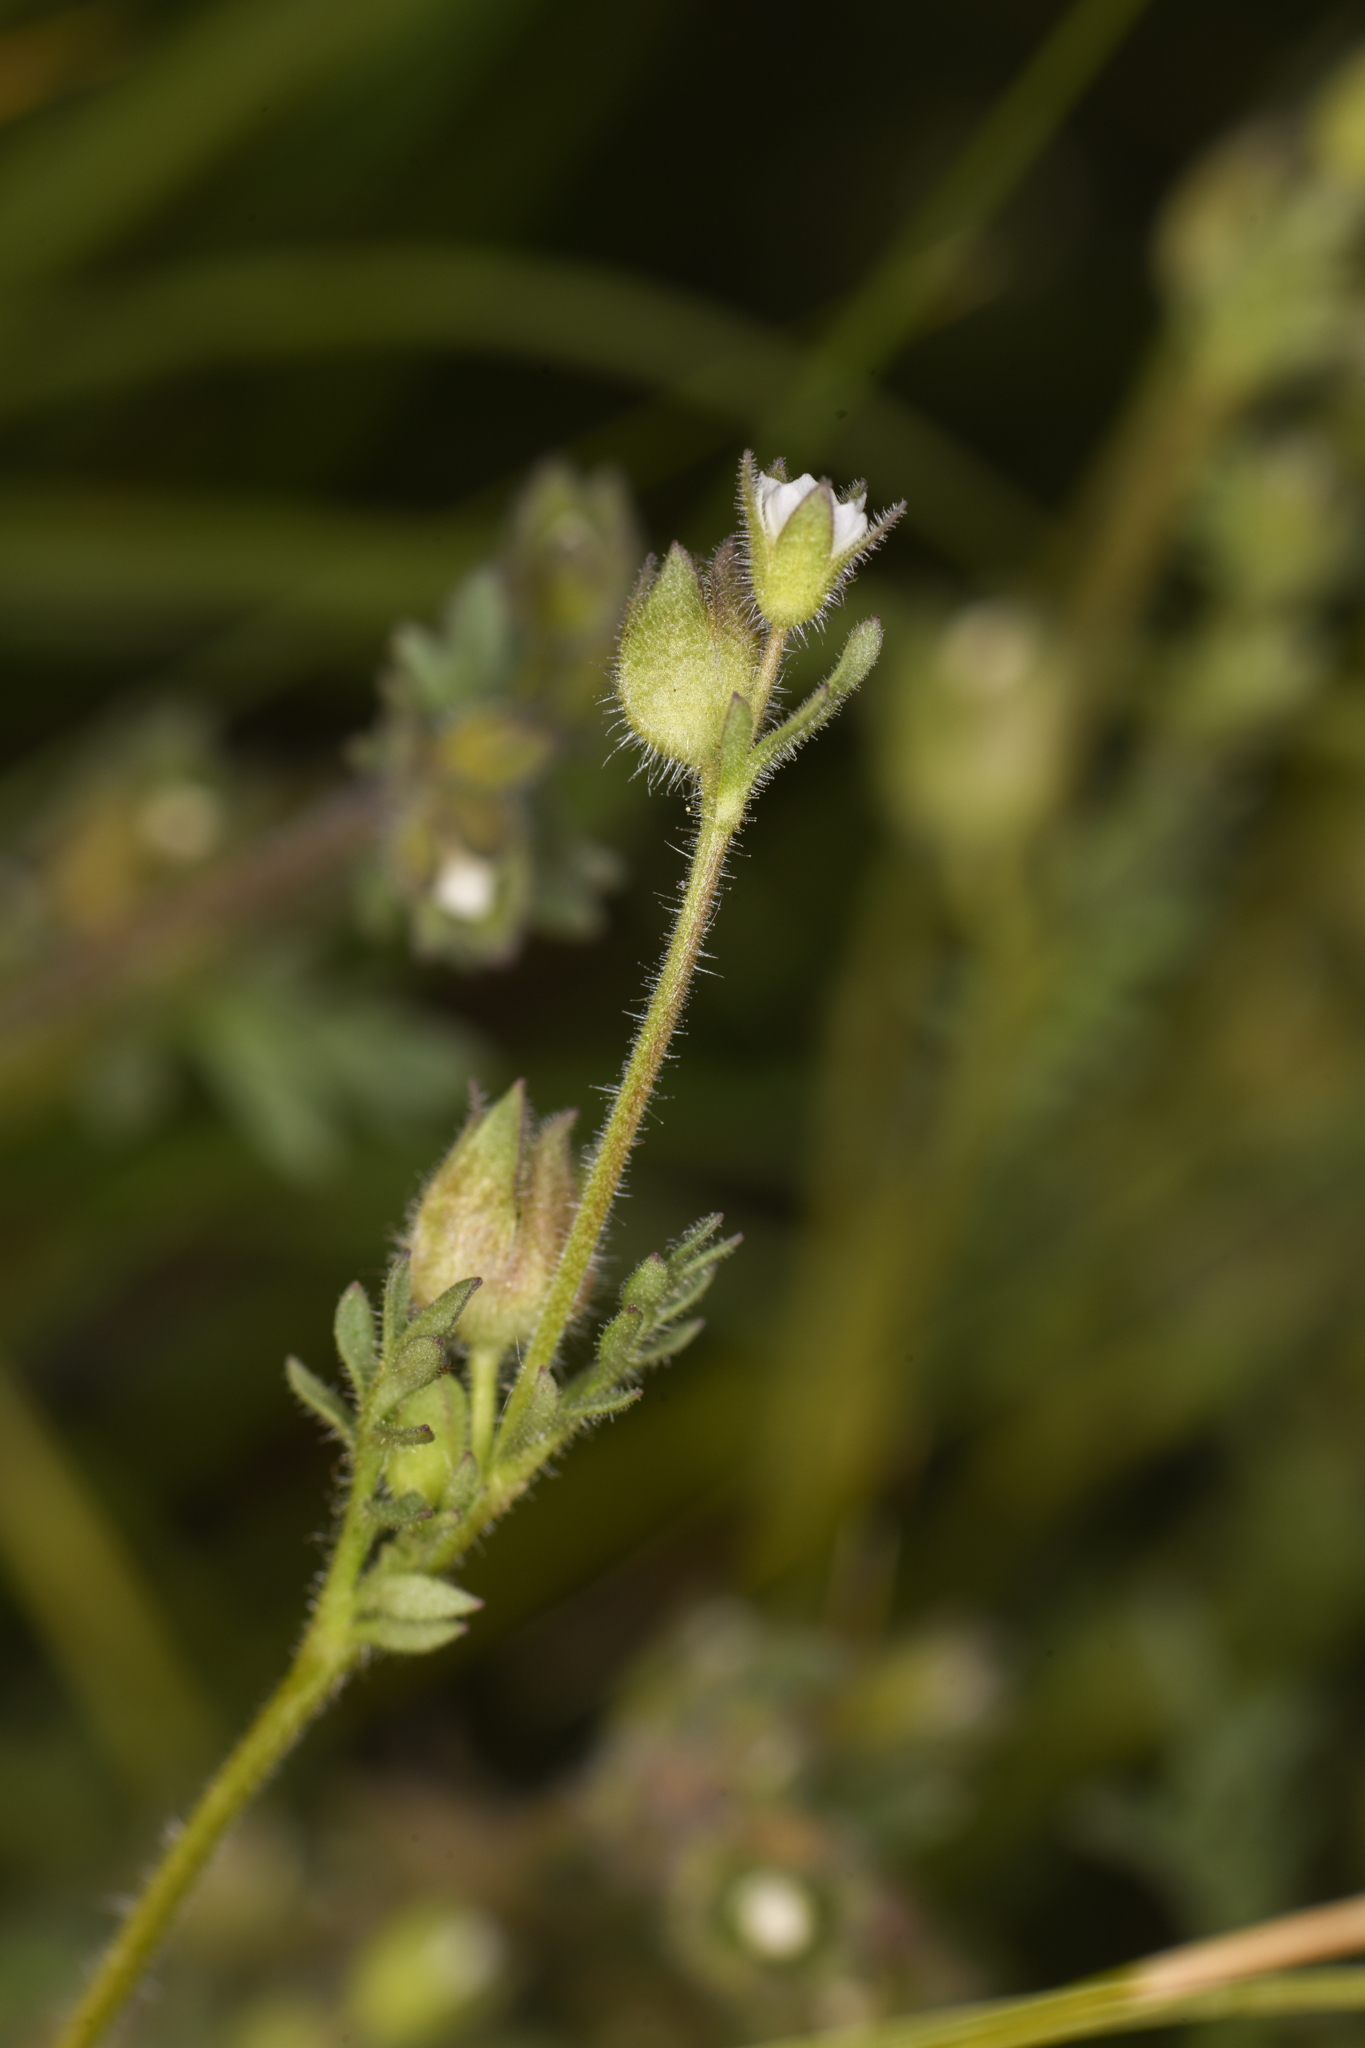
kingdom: Plantae
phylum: Tracheophyta
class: Magnoliopsida
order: Ericales
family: Polemoniaceae
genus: Polemonium
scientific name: Polemonium micranthum
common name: Annual jacob's-ladder
